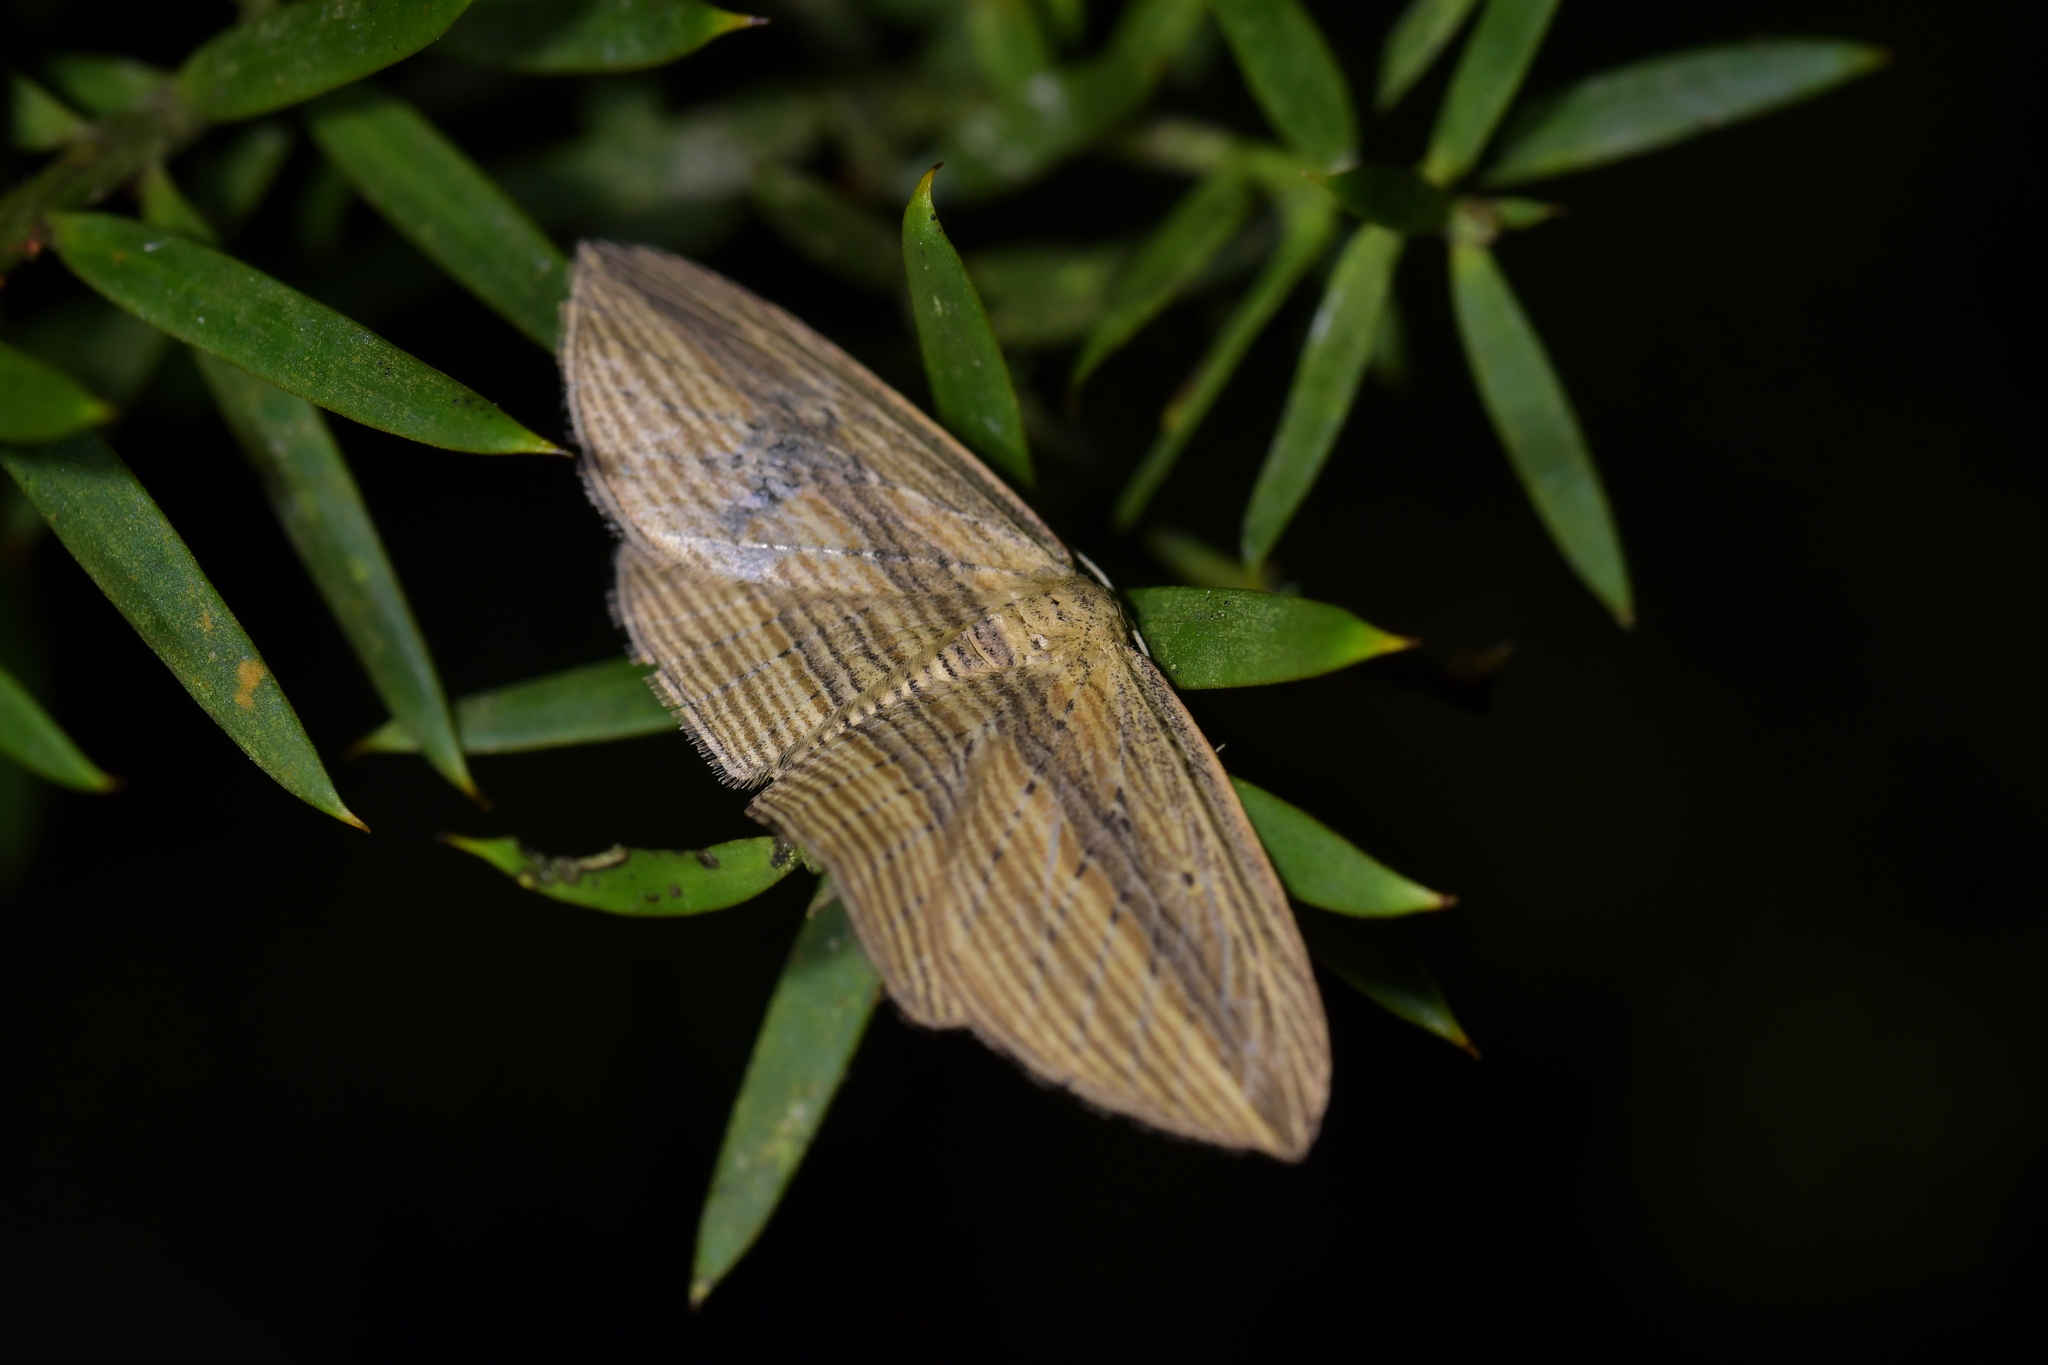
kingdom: Animalia
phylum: Arthropoda
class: Insecta
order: Lepidoptera
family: Geometridae
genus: Epiphryne
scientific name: Epiphryne verriculata
